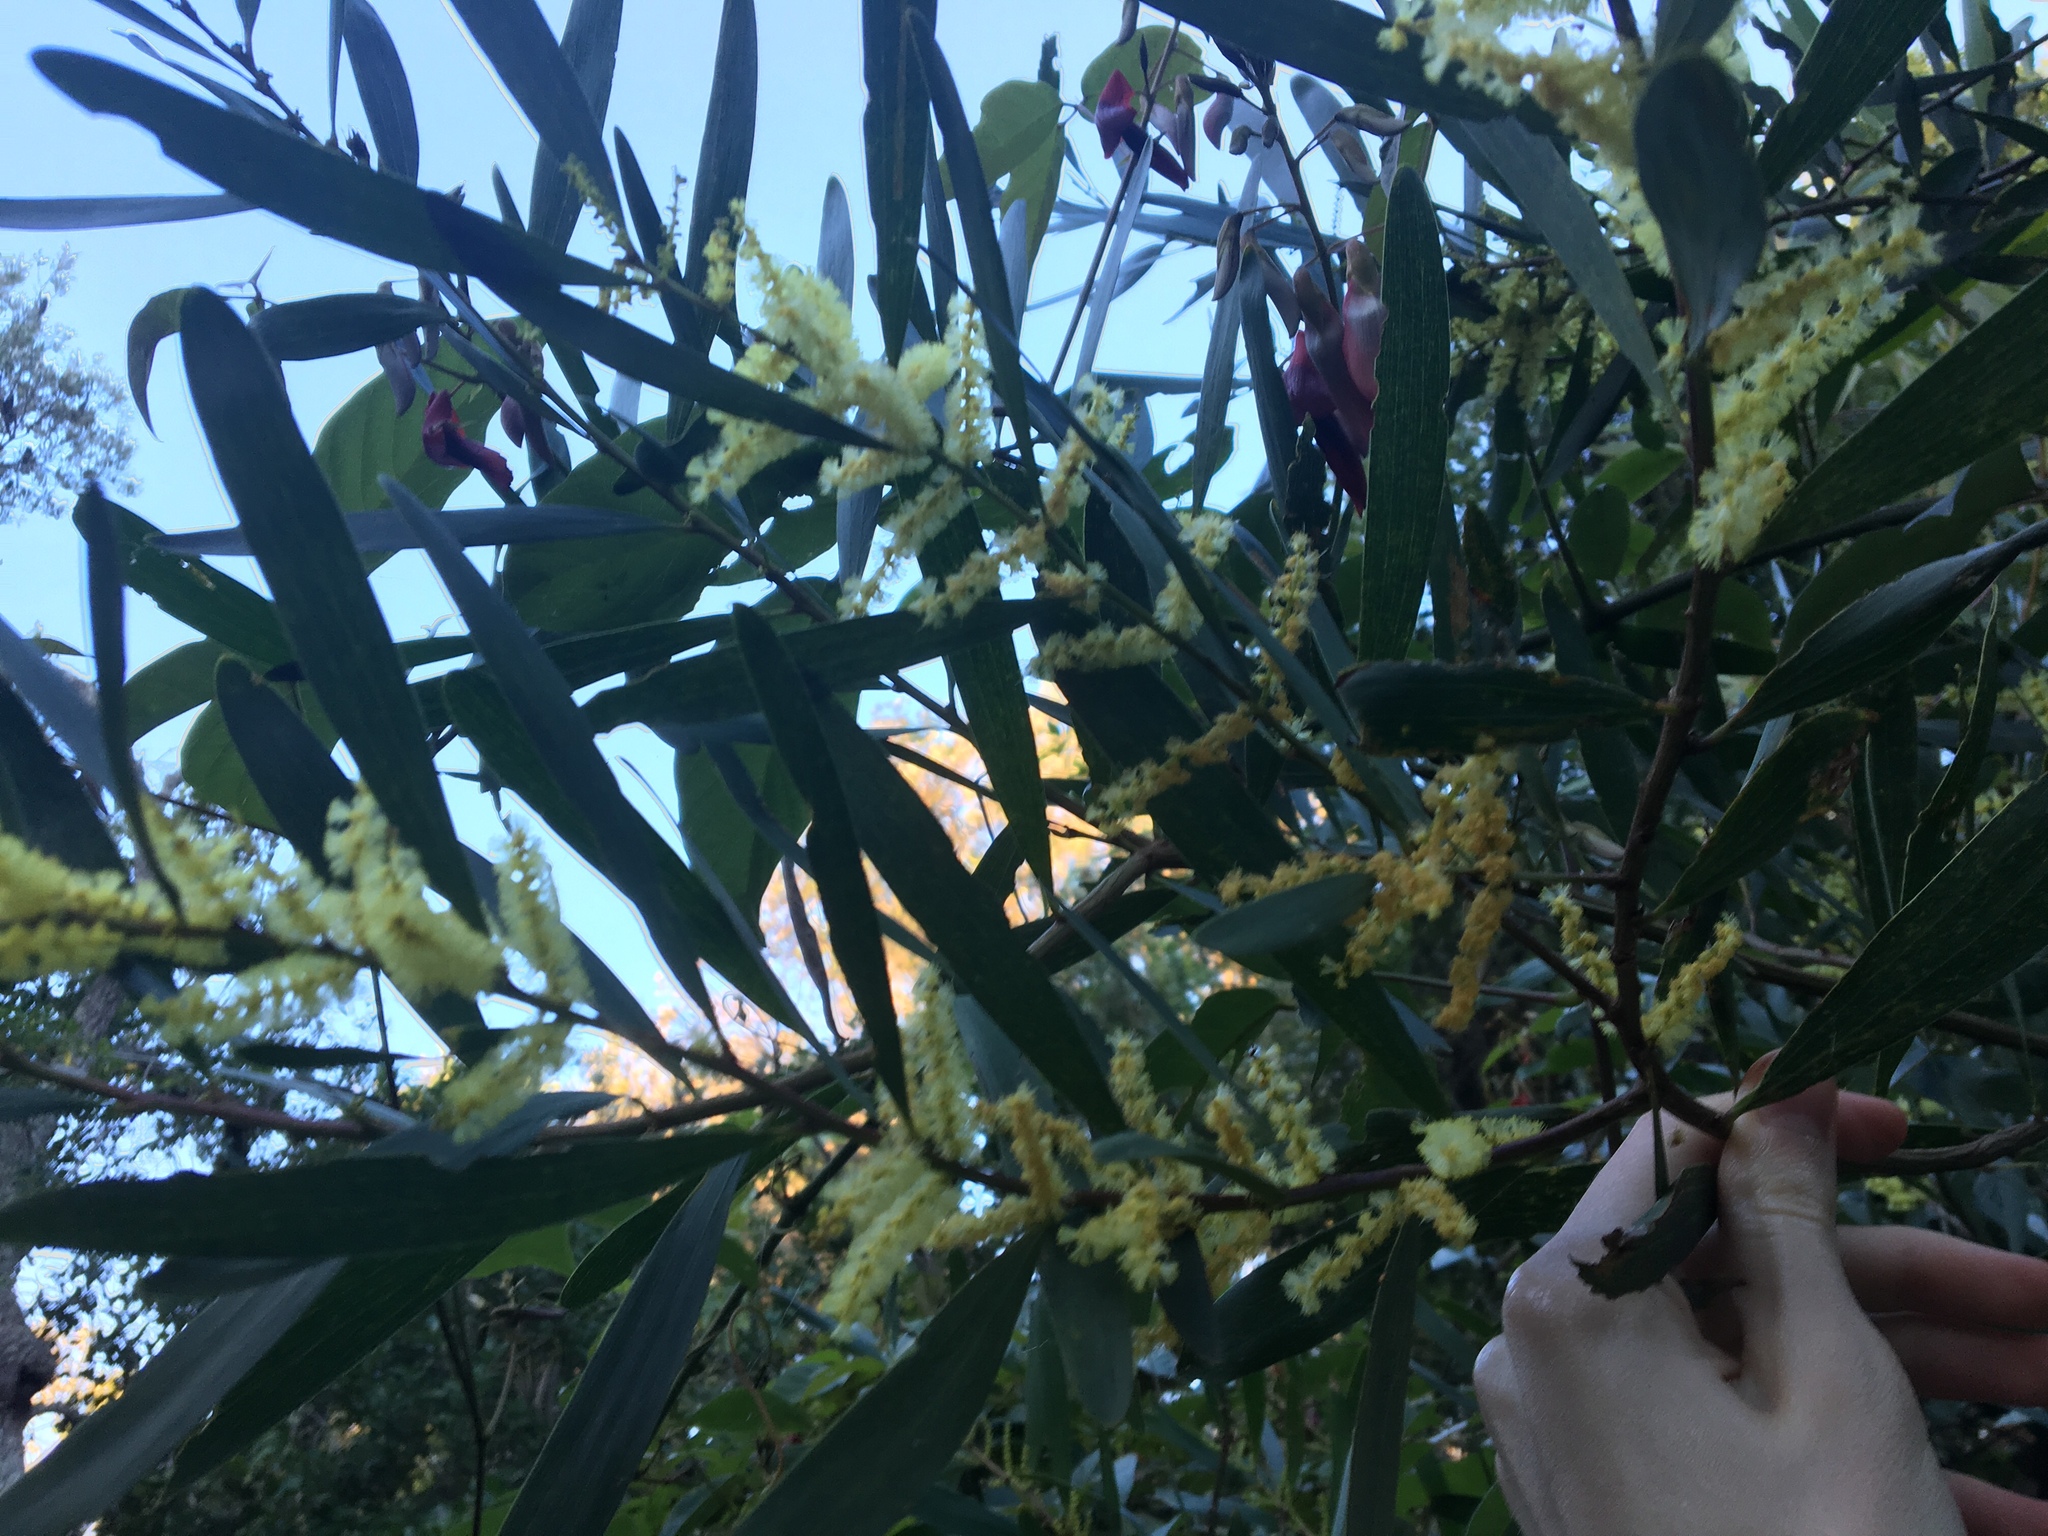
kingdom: Plantae
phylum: Tracheophyta
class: Magnoliopsida
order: Fabales
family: Fabaceae
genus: Acacia
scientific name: Acacia longifolia
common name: Sydney golden wattle
